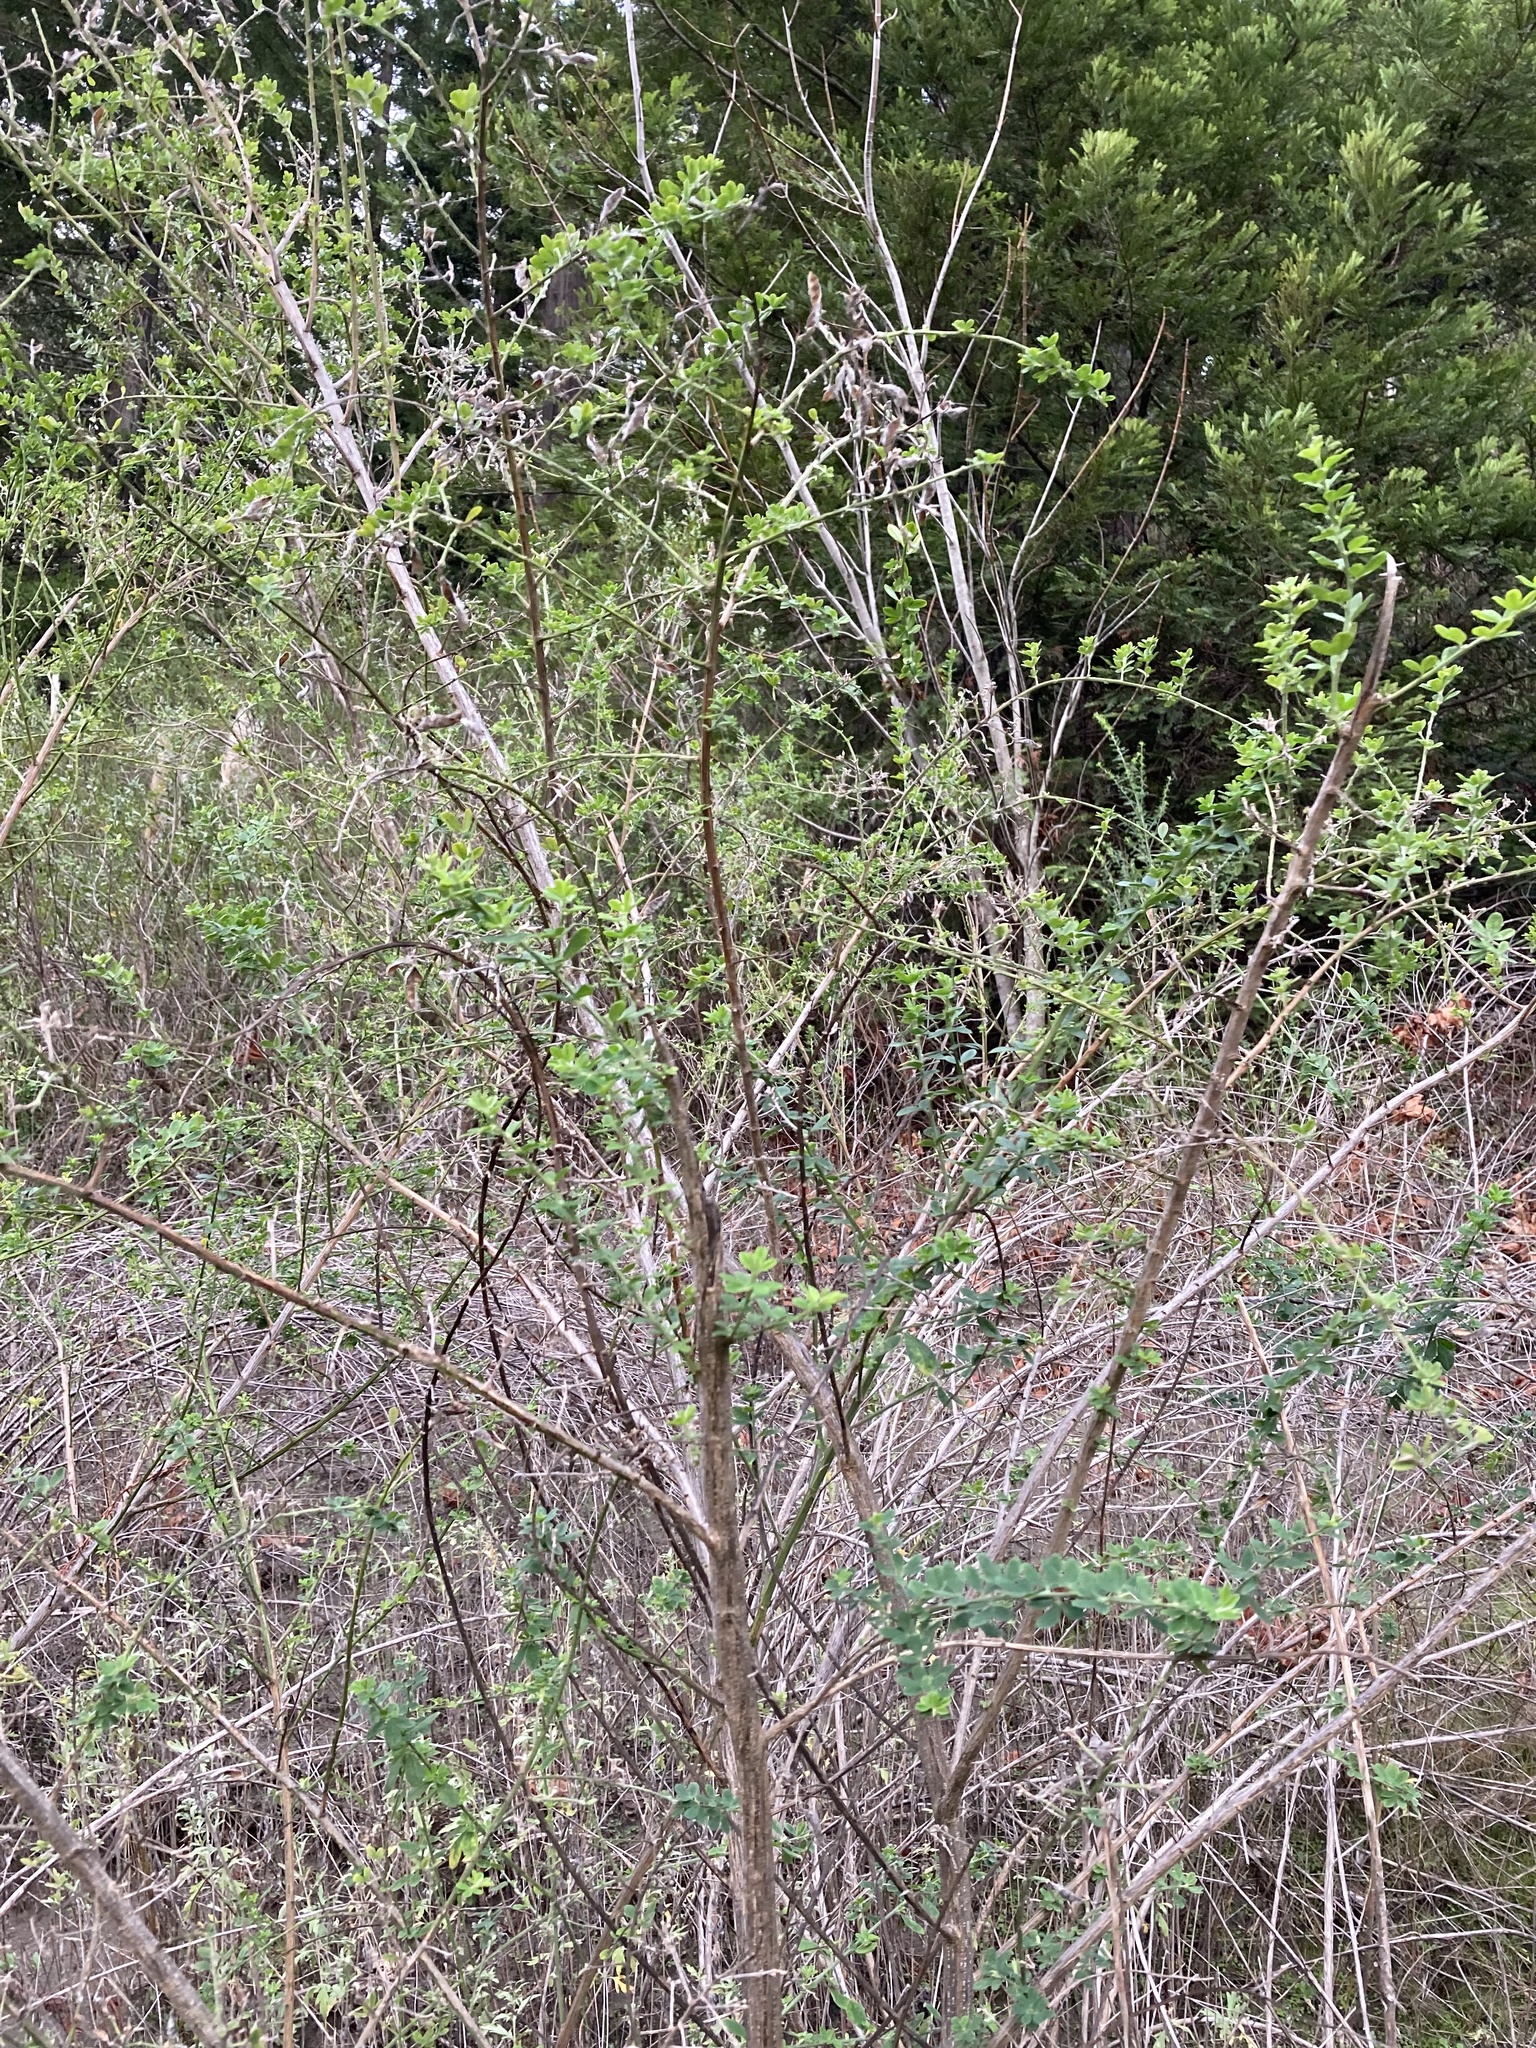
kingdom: Plantae
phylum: Tracheophyta
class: Magnoliopsida
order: Fabales
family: Fabaceae
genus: Genista
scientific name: Genista monspessulana
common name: Montpellier broom
